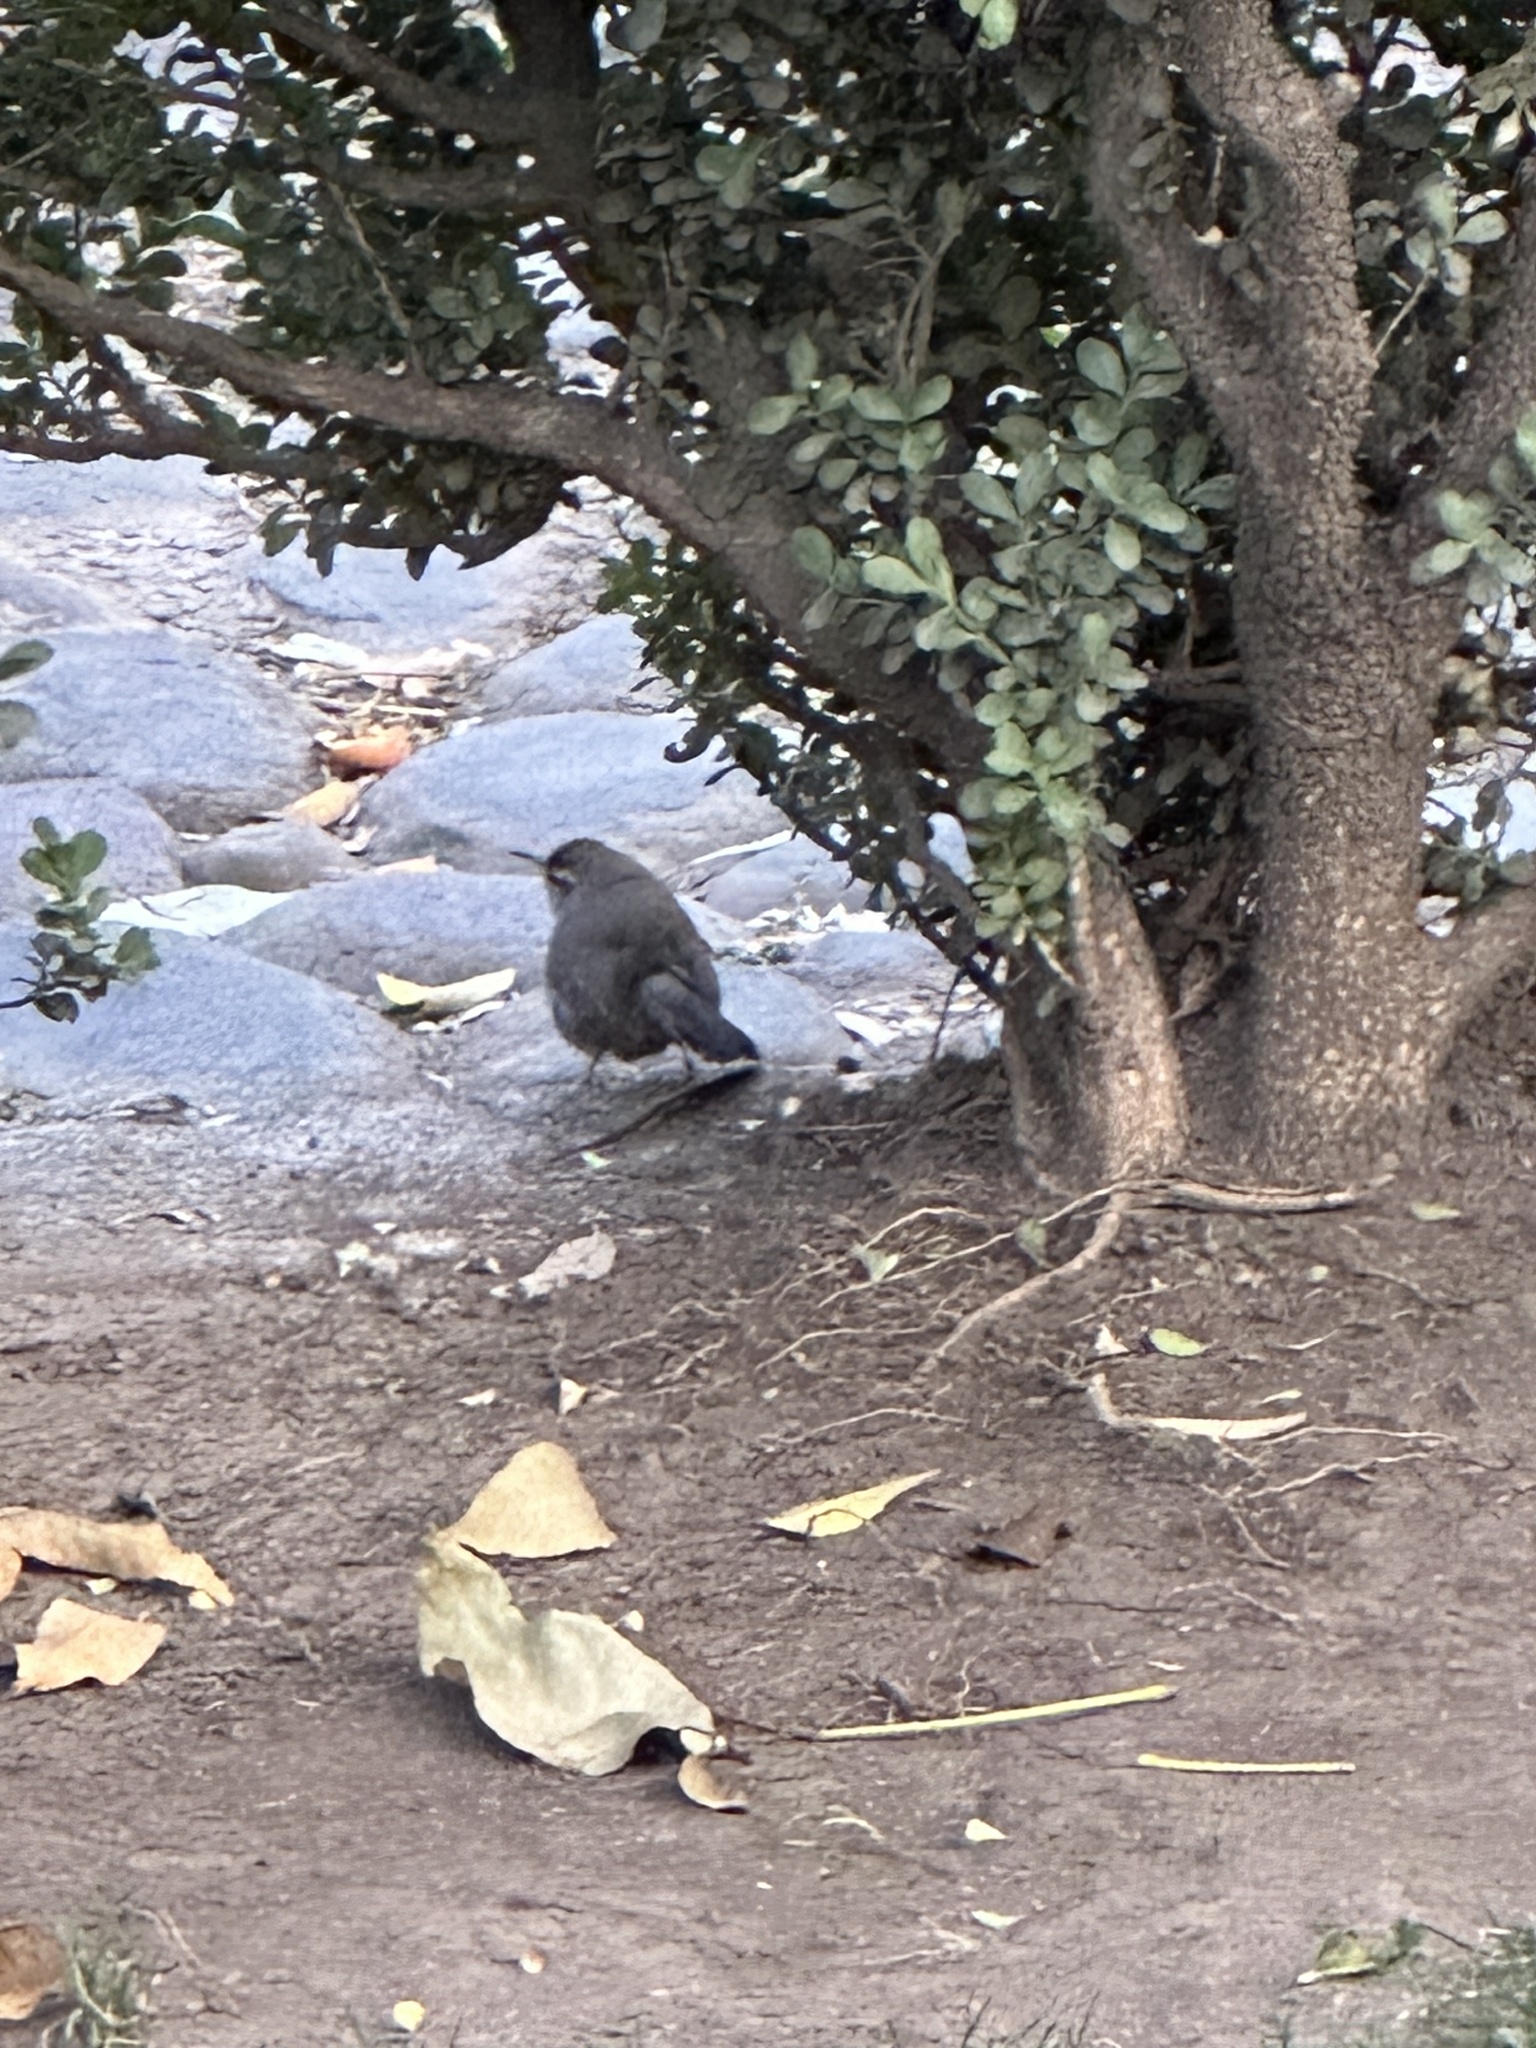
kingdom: Animalia
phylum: Chordata
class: Aves
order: Passeriformes
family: Troglodytidae
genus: Thryomanes
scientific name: Thryomanes bewickii
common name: Bewick's wren
